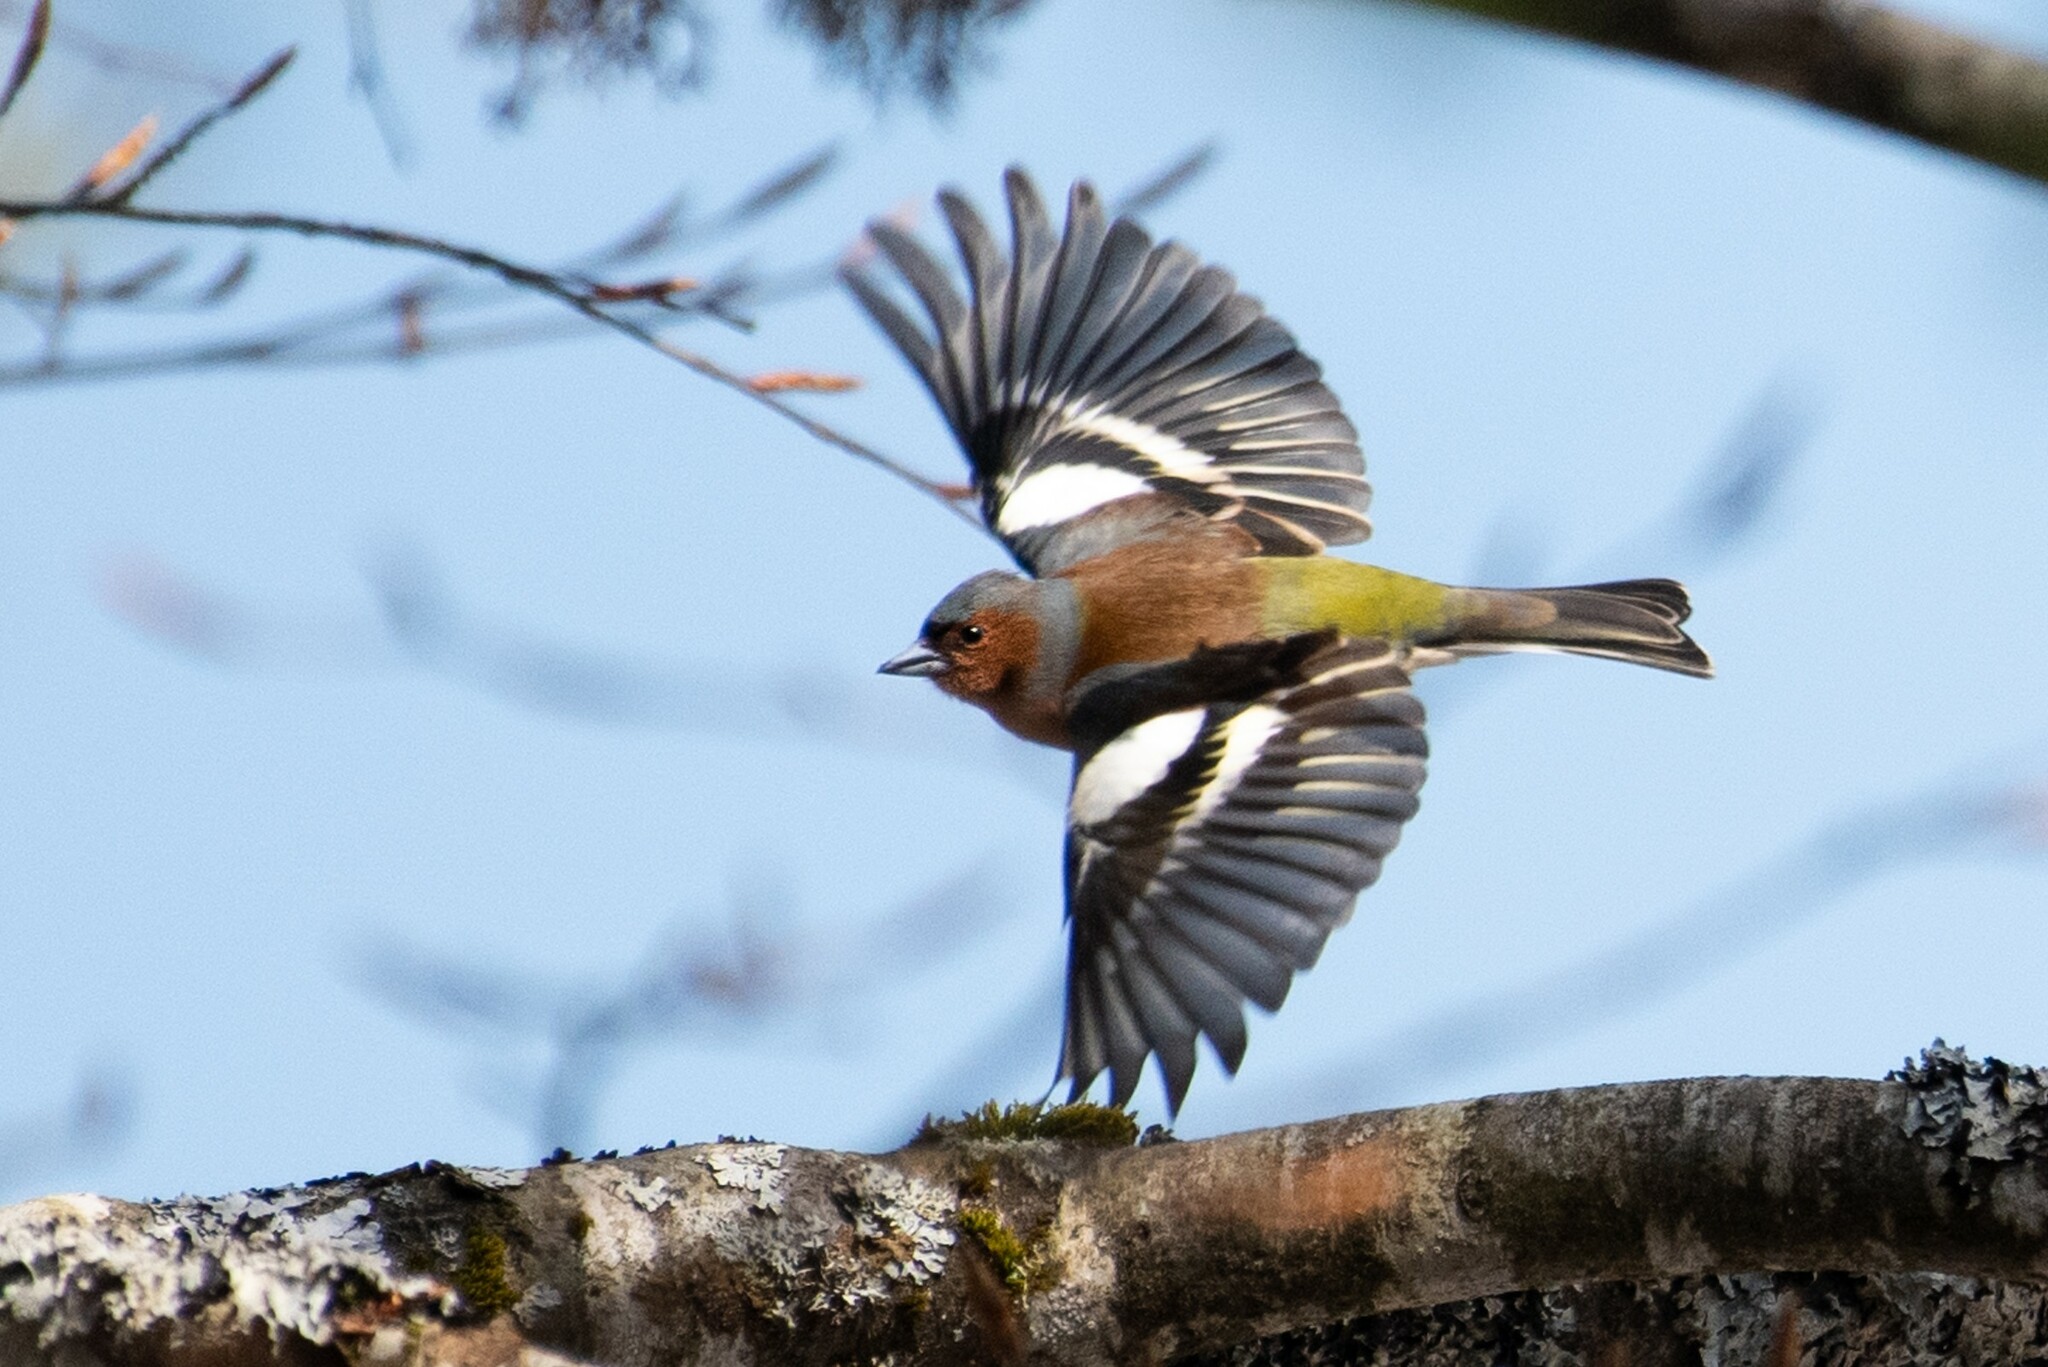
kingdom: Animalia
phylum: Chordata
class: Aves
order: Passeriformes
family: Fringillidae
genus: Fringilla
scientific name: Fringilla coelebs
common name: Common chaffinch
